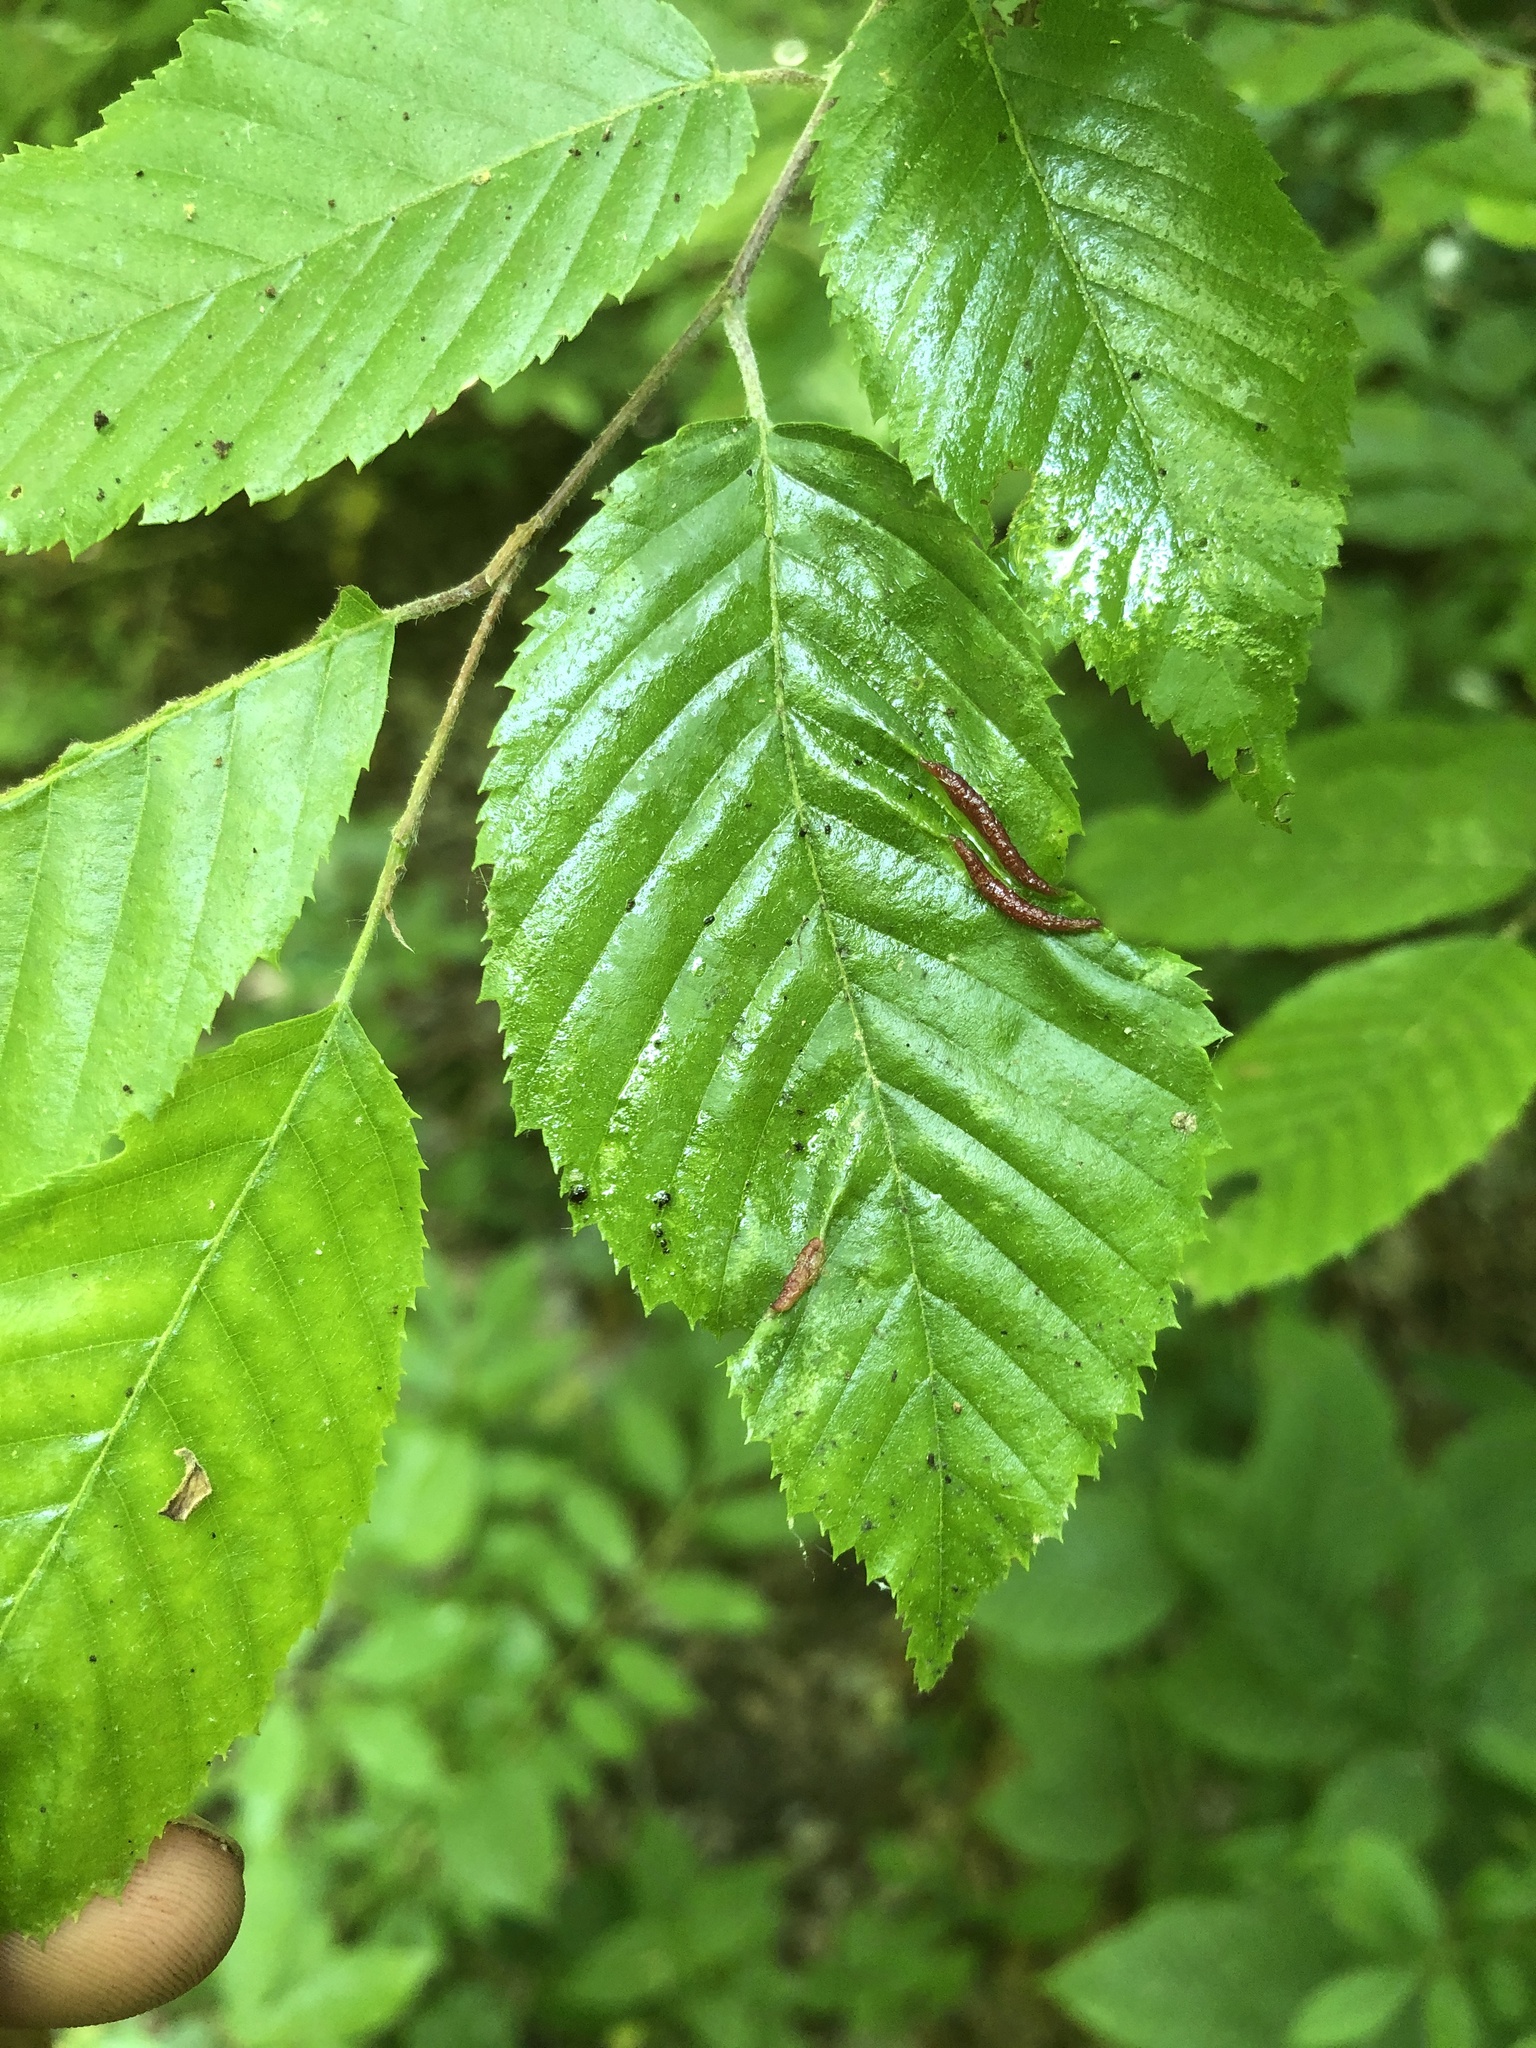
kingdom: Animalia
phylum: Arthropoda
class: Insecta
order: Diptera
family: Cecidomyiidae
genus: Dasineura
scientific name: Dasineura pudibunda
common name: Hornbeam leaf gall midge
